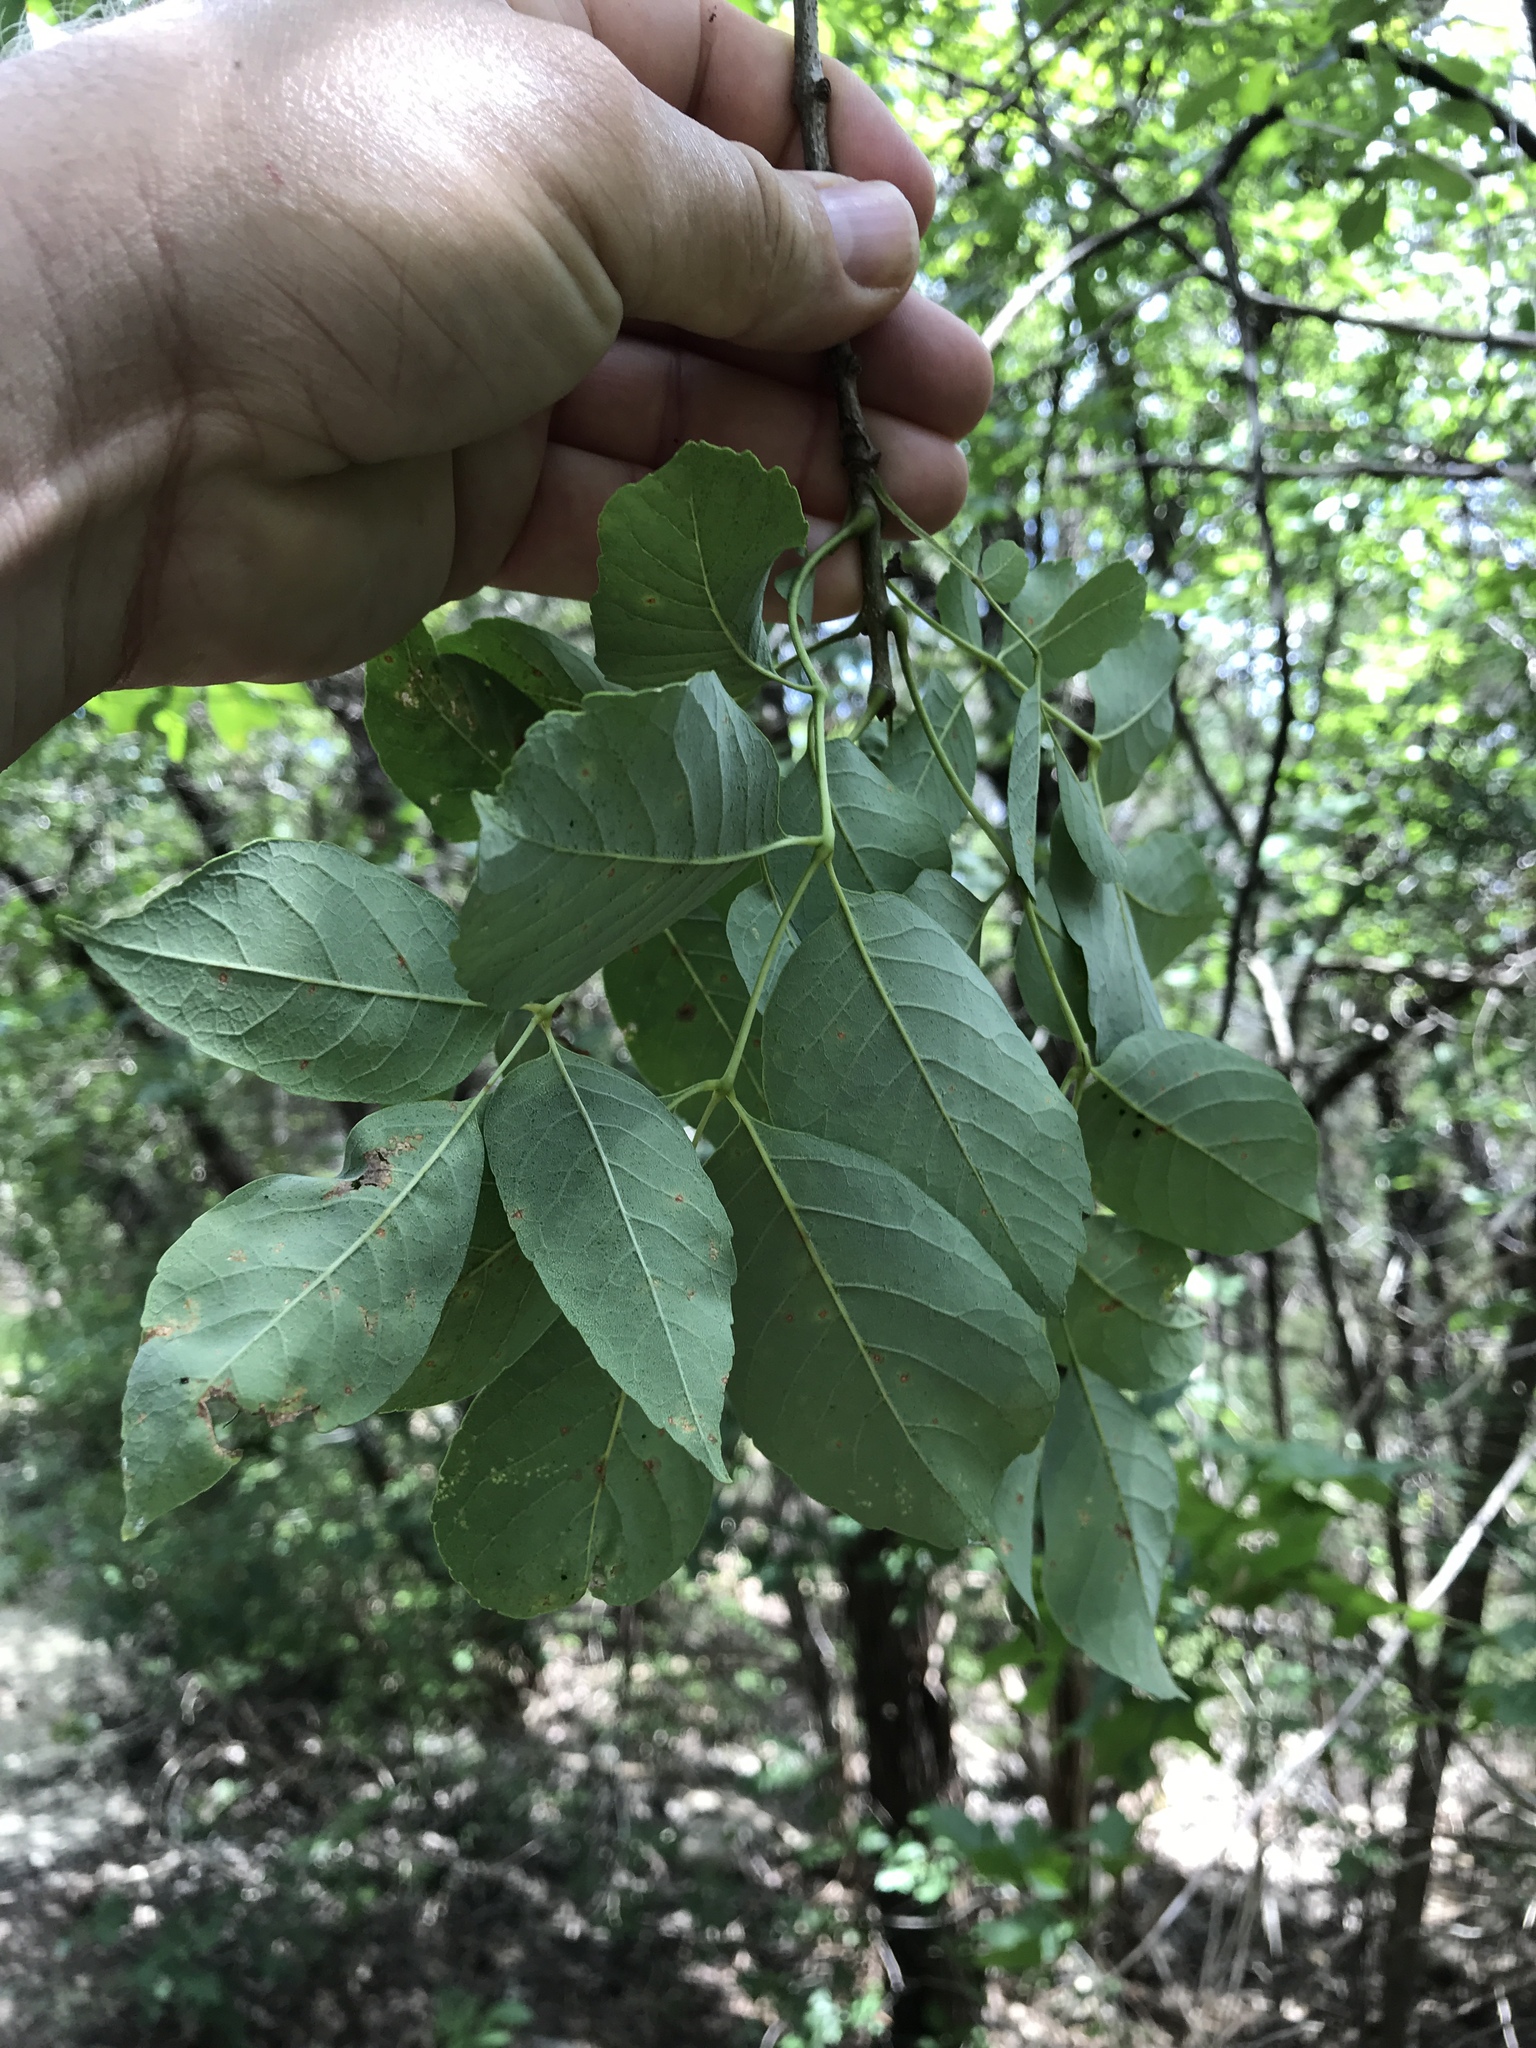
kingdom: Plantae
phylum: Tracheophyta
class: Magnoliopsida
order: Lamiales
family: Oleaceae
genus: Fraxinus
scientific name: Fraxinus albicans
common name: Texas ash
